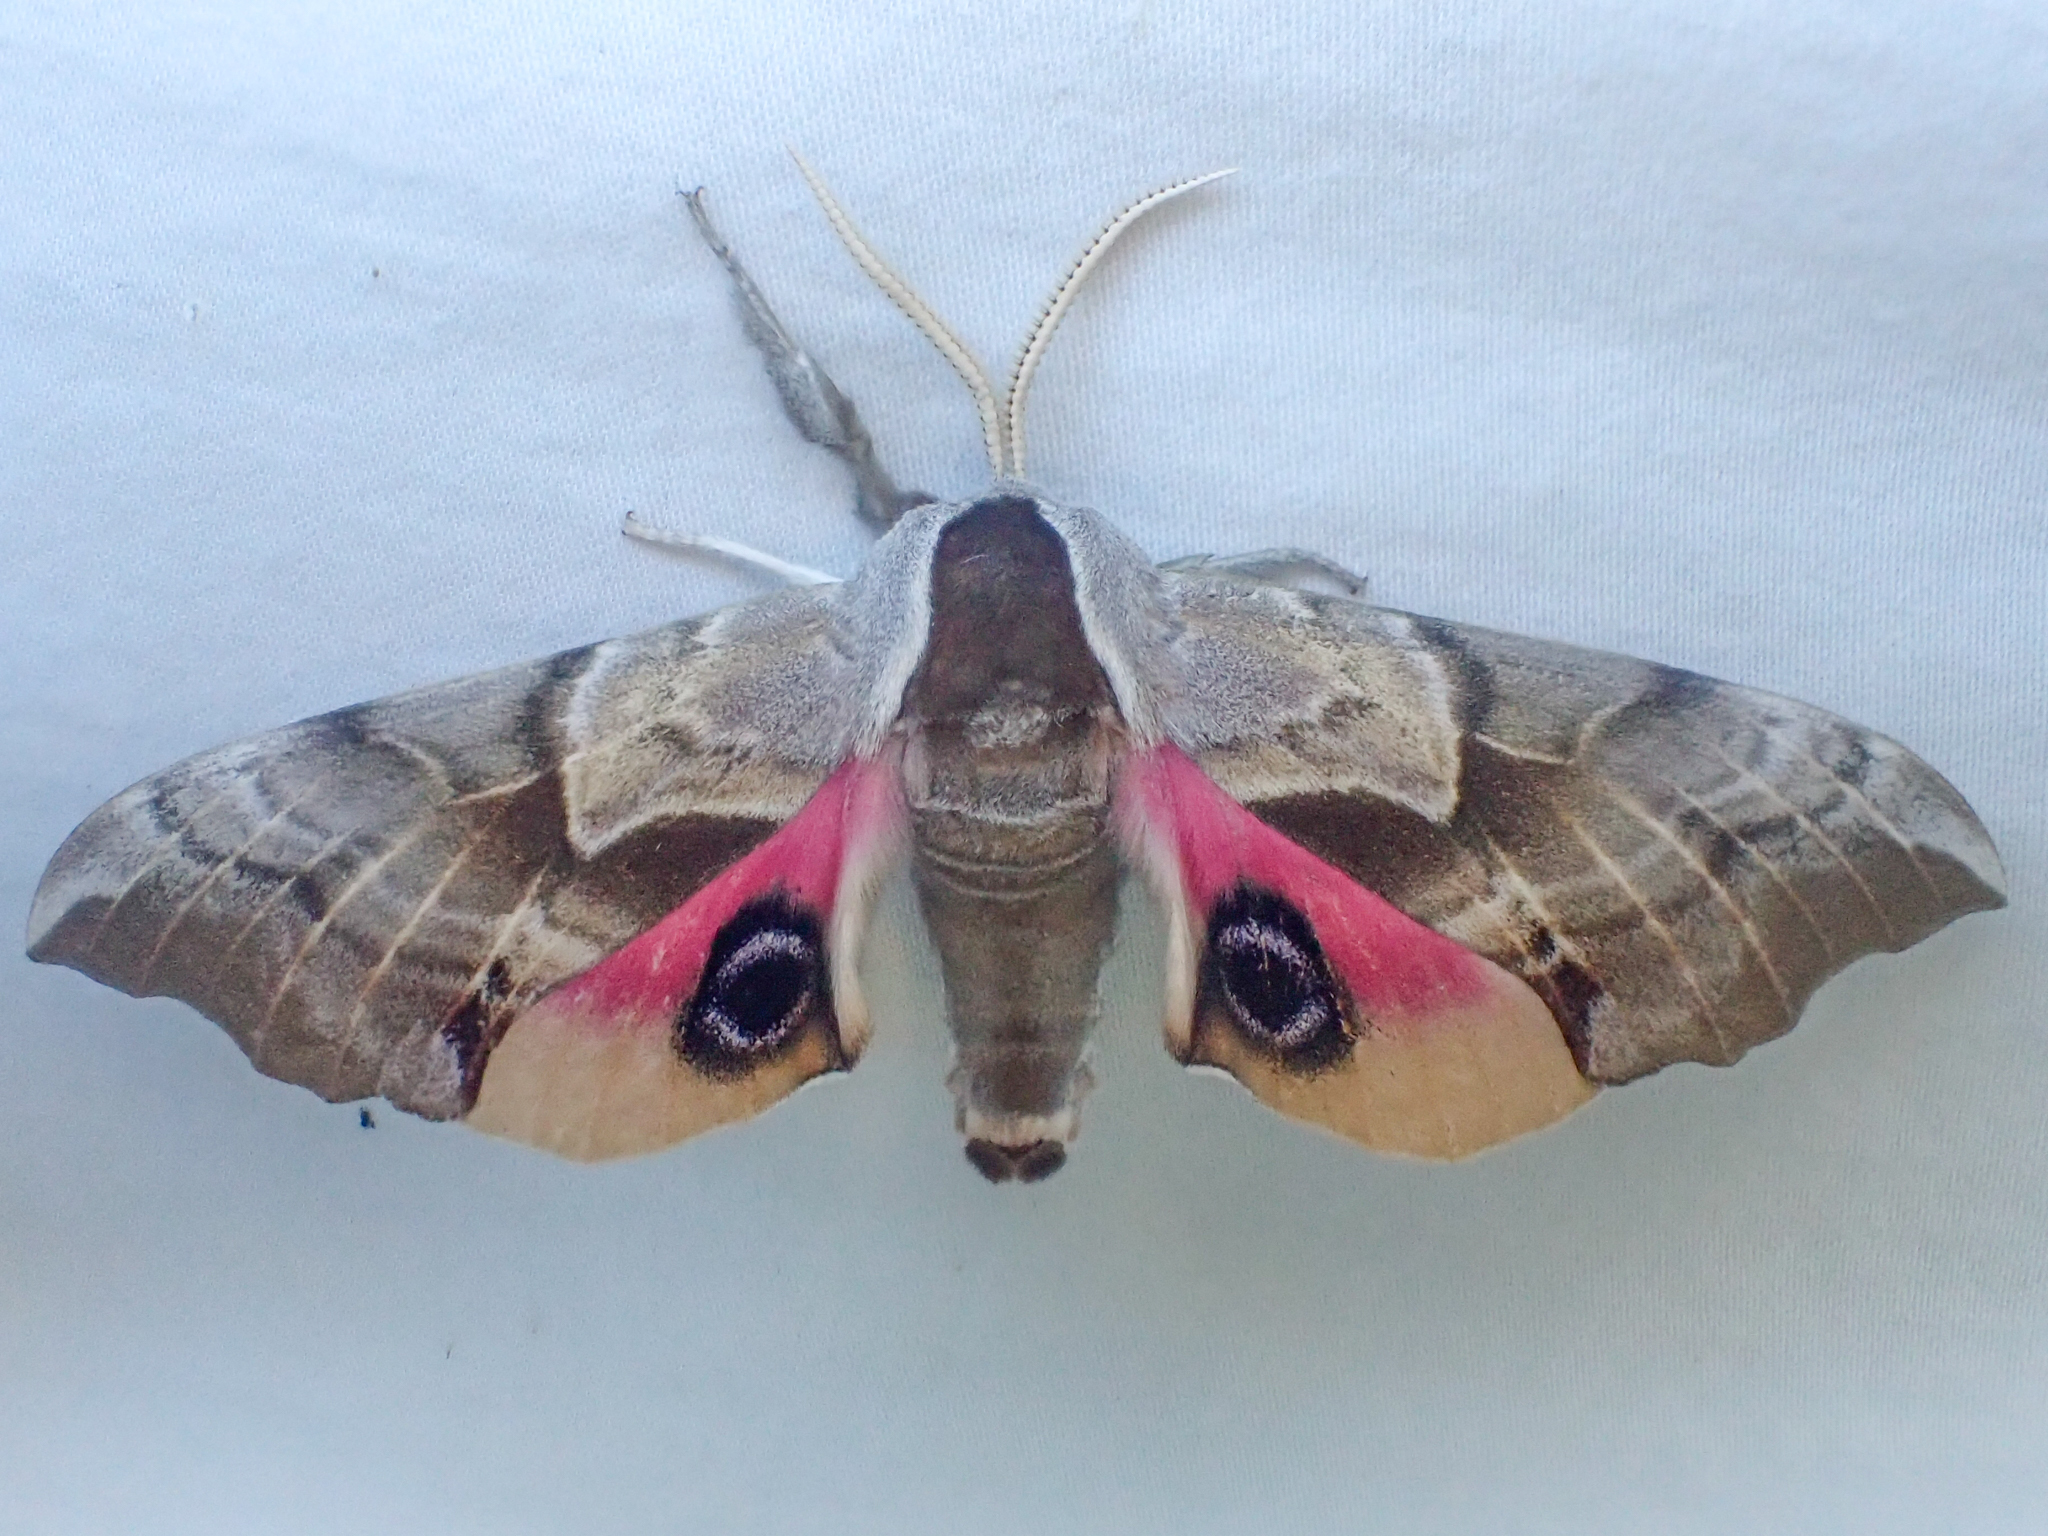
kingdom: Animalia
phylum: Arthropoda
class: Insecta
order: Lepidoptera
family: Sphingidae
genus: Smerinthus
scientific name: Smerinthus cerisyi
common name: Cerisy's sphinx moth
